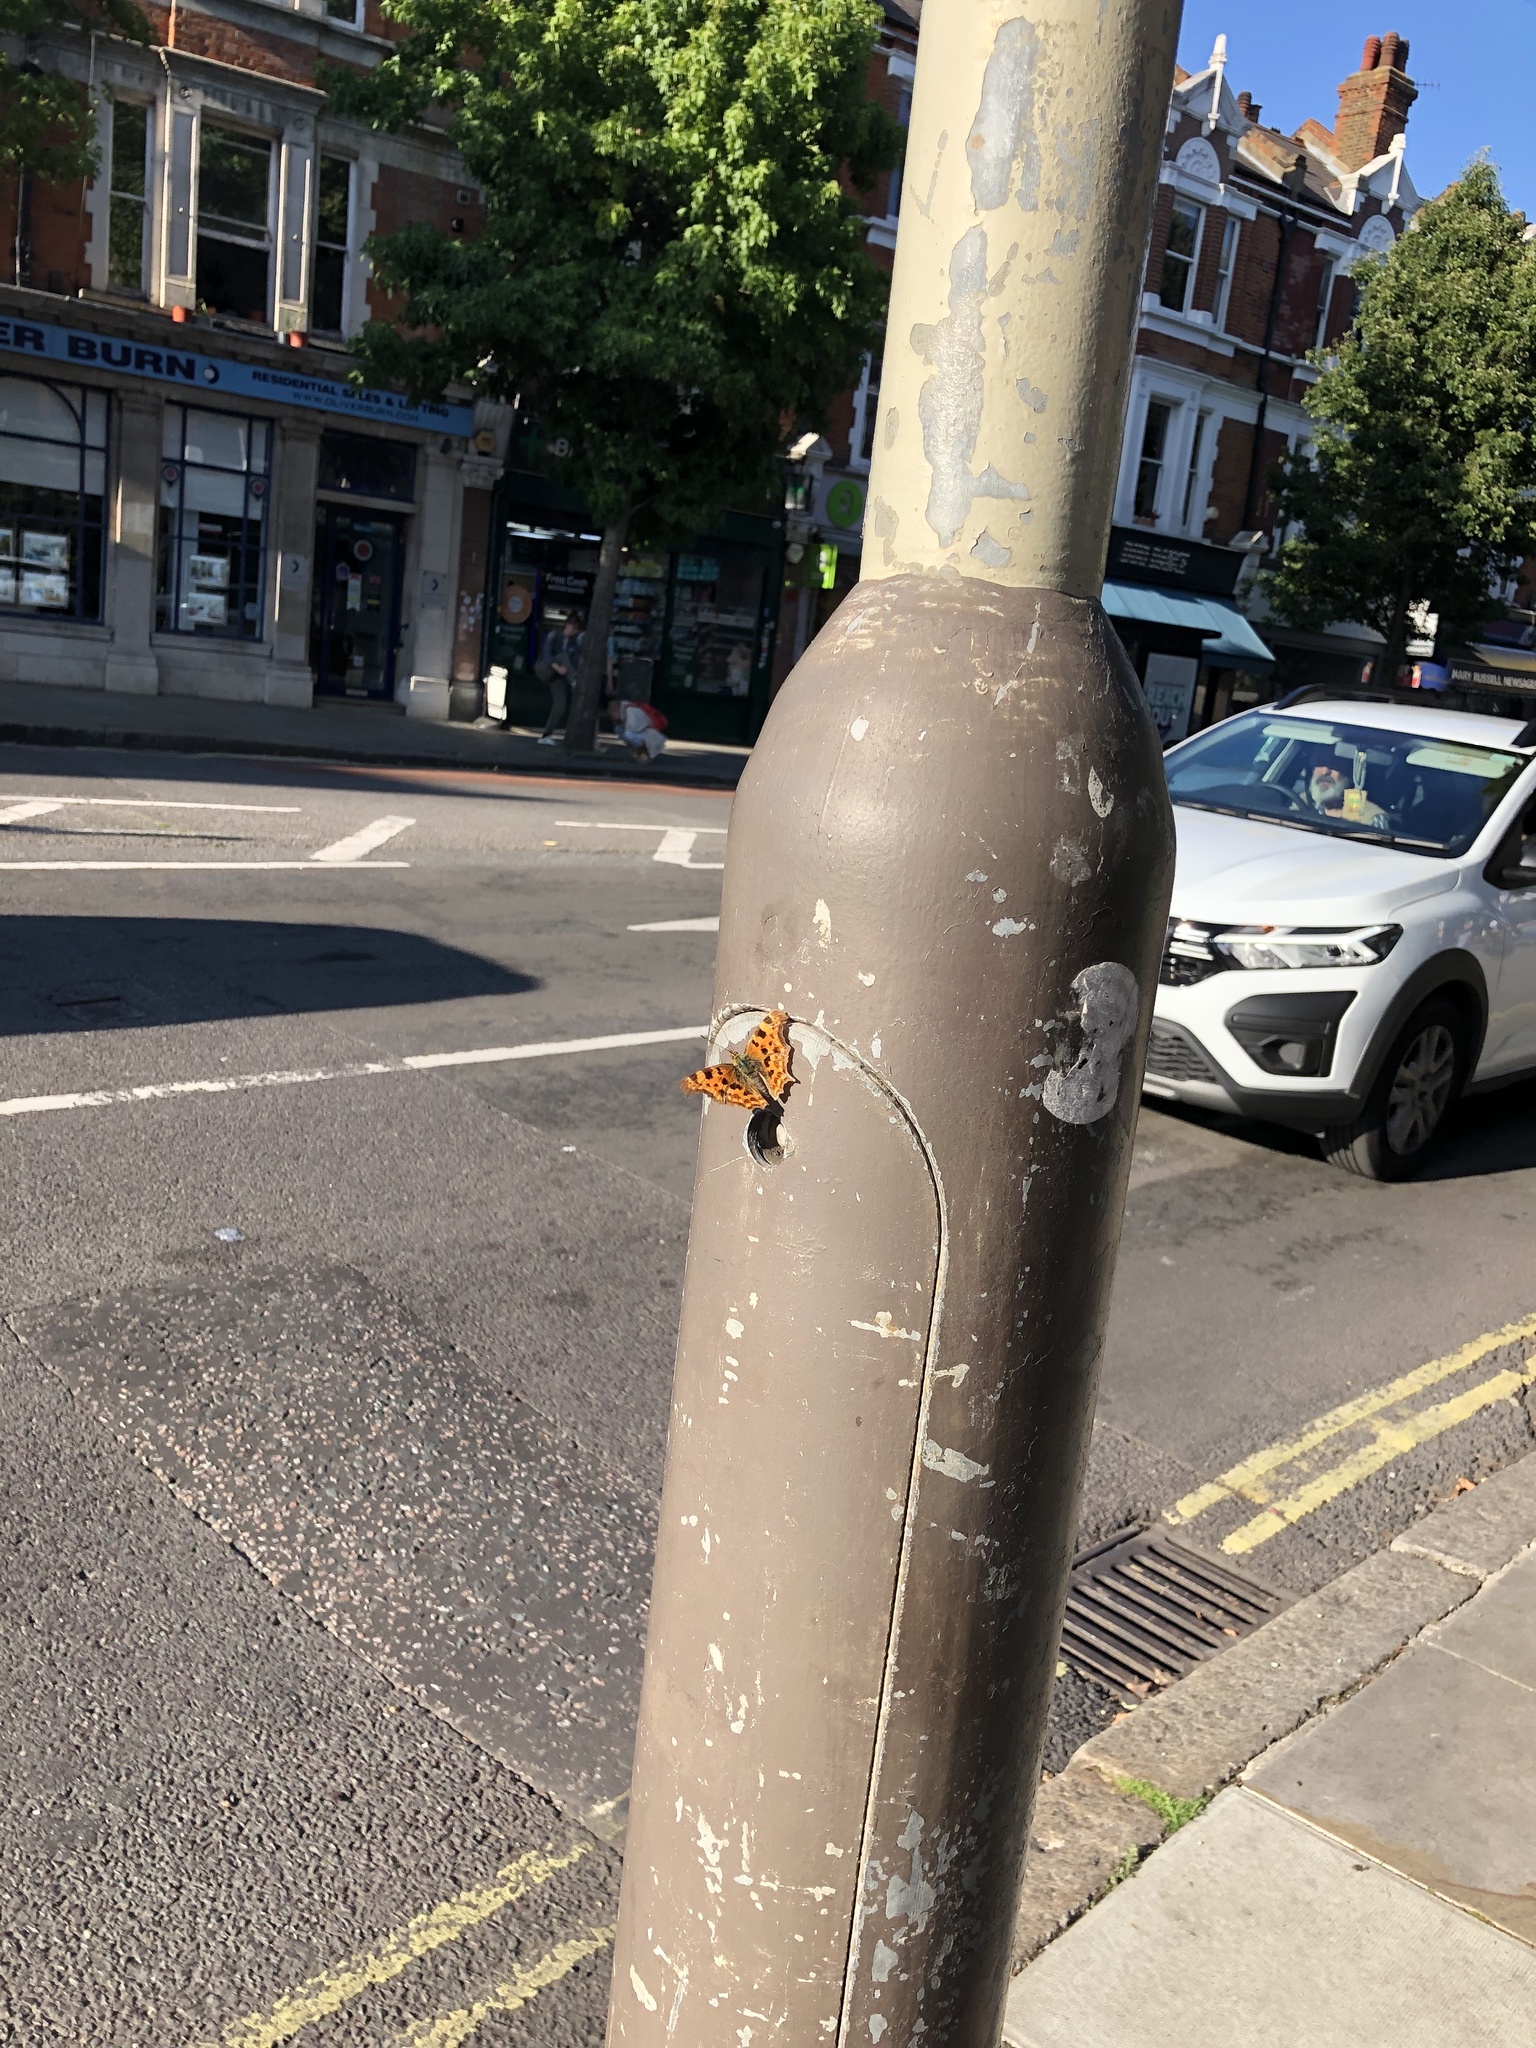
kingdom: Animalia
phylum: Arthropoda
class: Insecta
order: Lepidoptera
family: Nymphalidae
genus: Polygonia
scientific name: Polygonia c-album
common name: Comma
